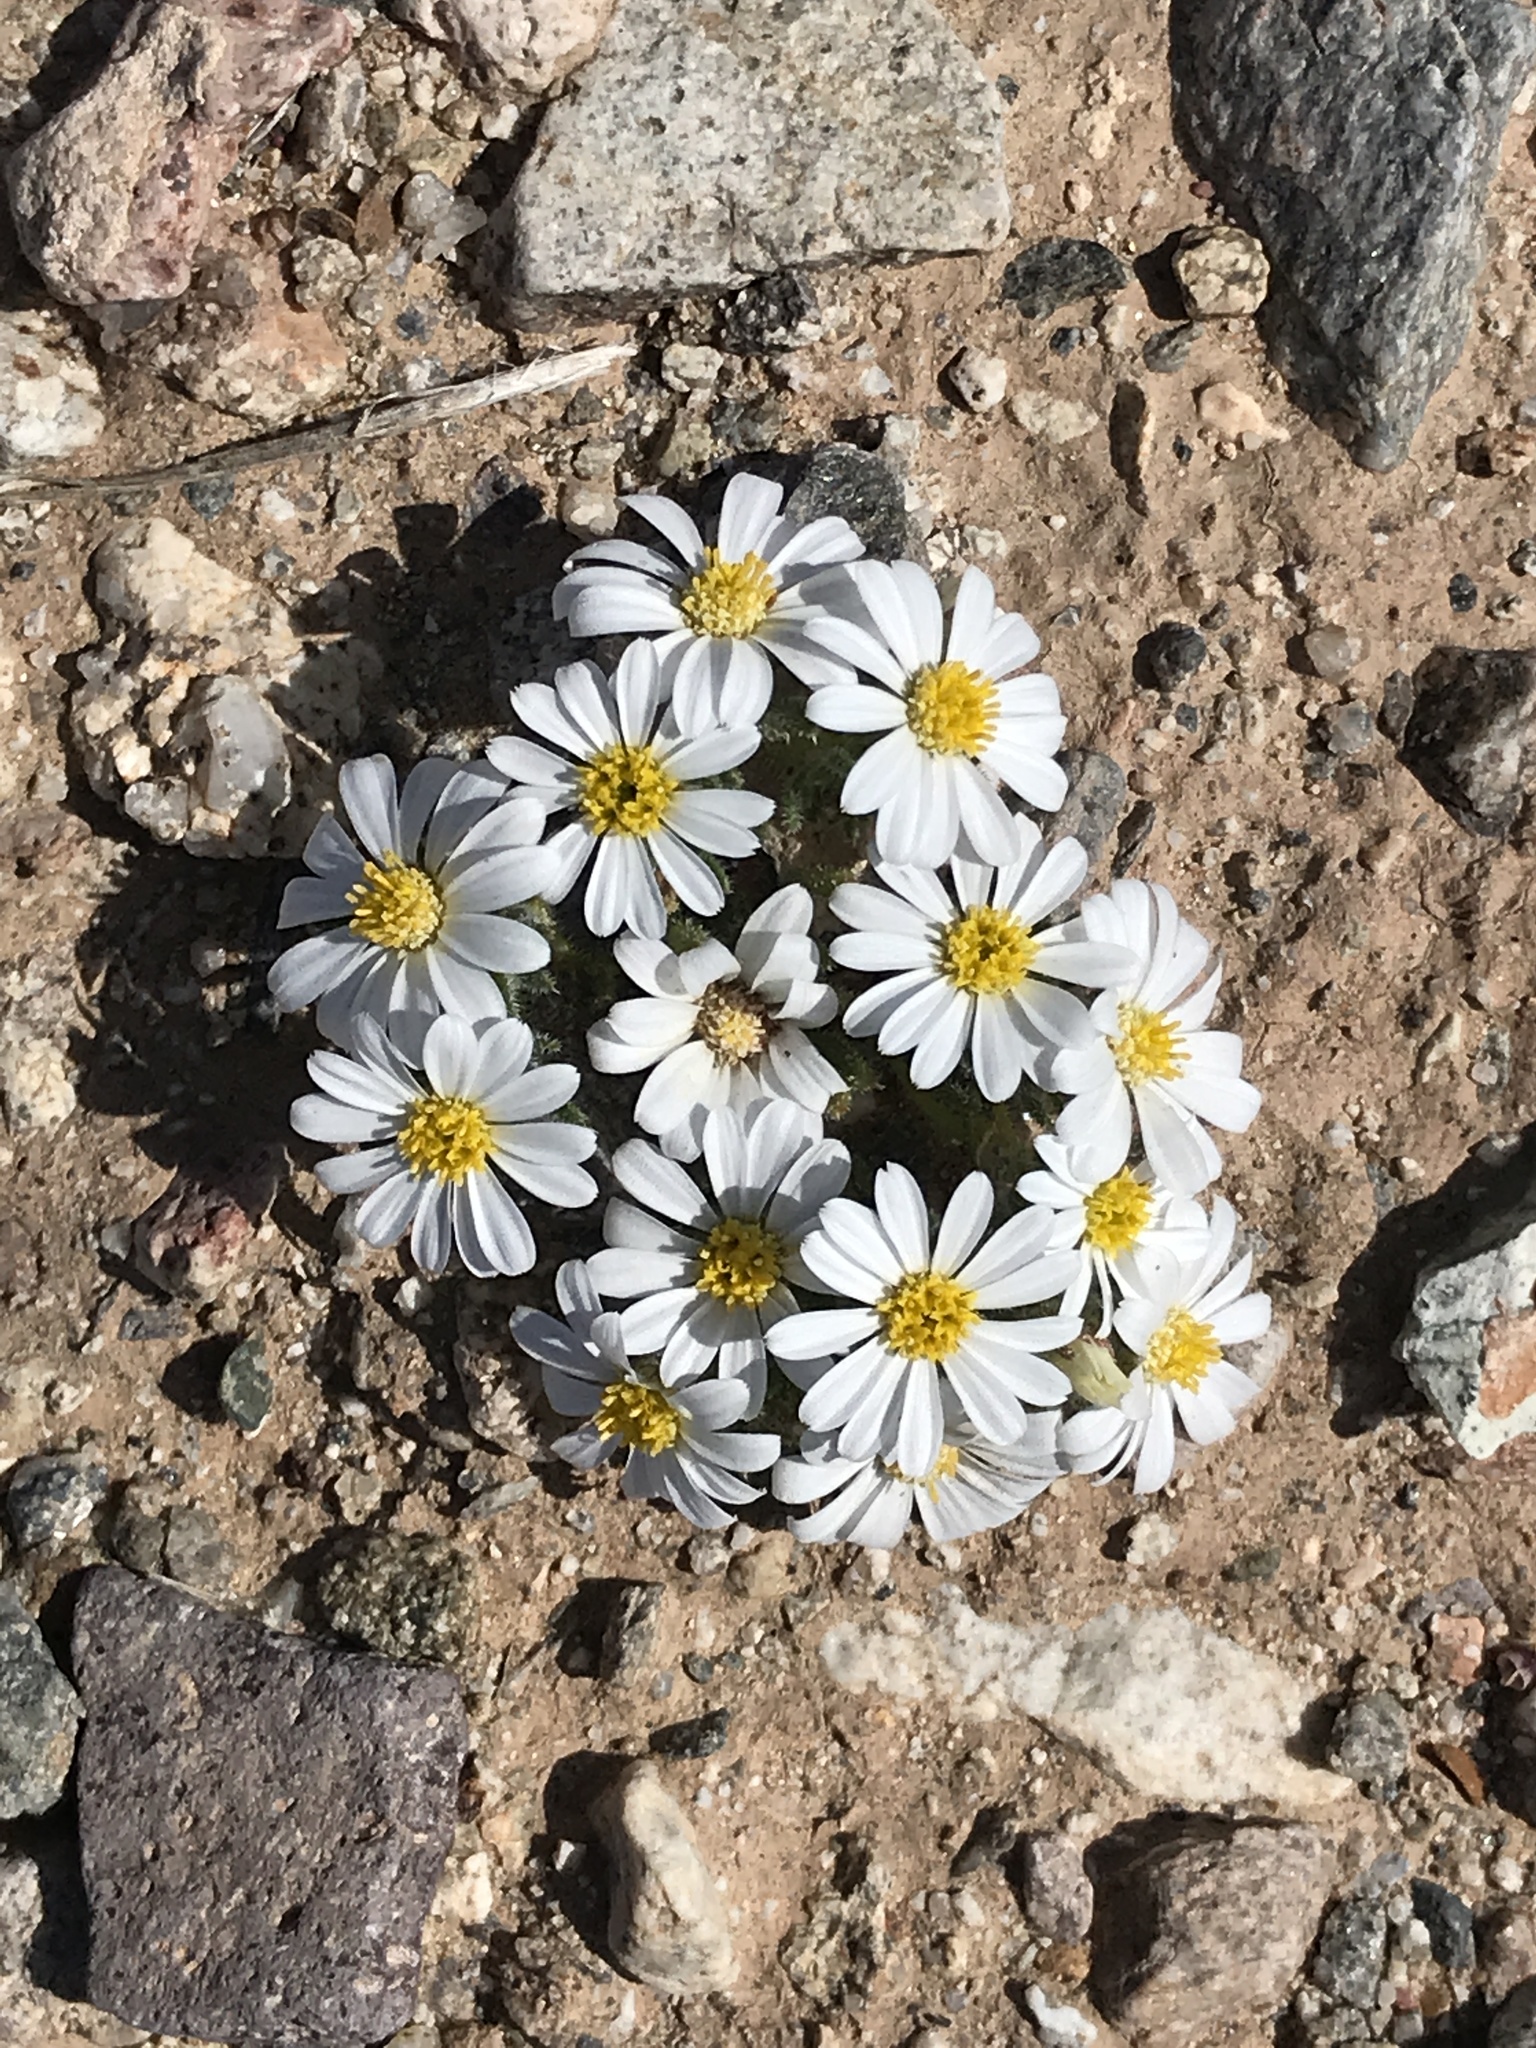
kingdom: Plantae
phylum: Tracheophyta
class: Magnoliopsida
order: Asterales
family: Asteraceae
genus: Monoptilon
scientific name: Monoptilon bellioides
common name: Bristly desertstar
